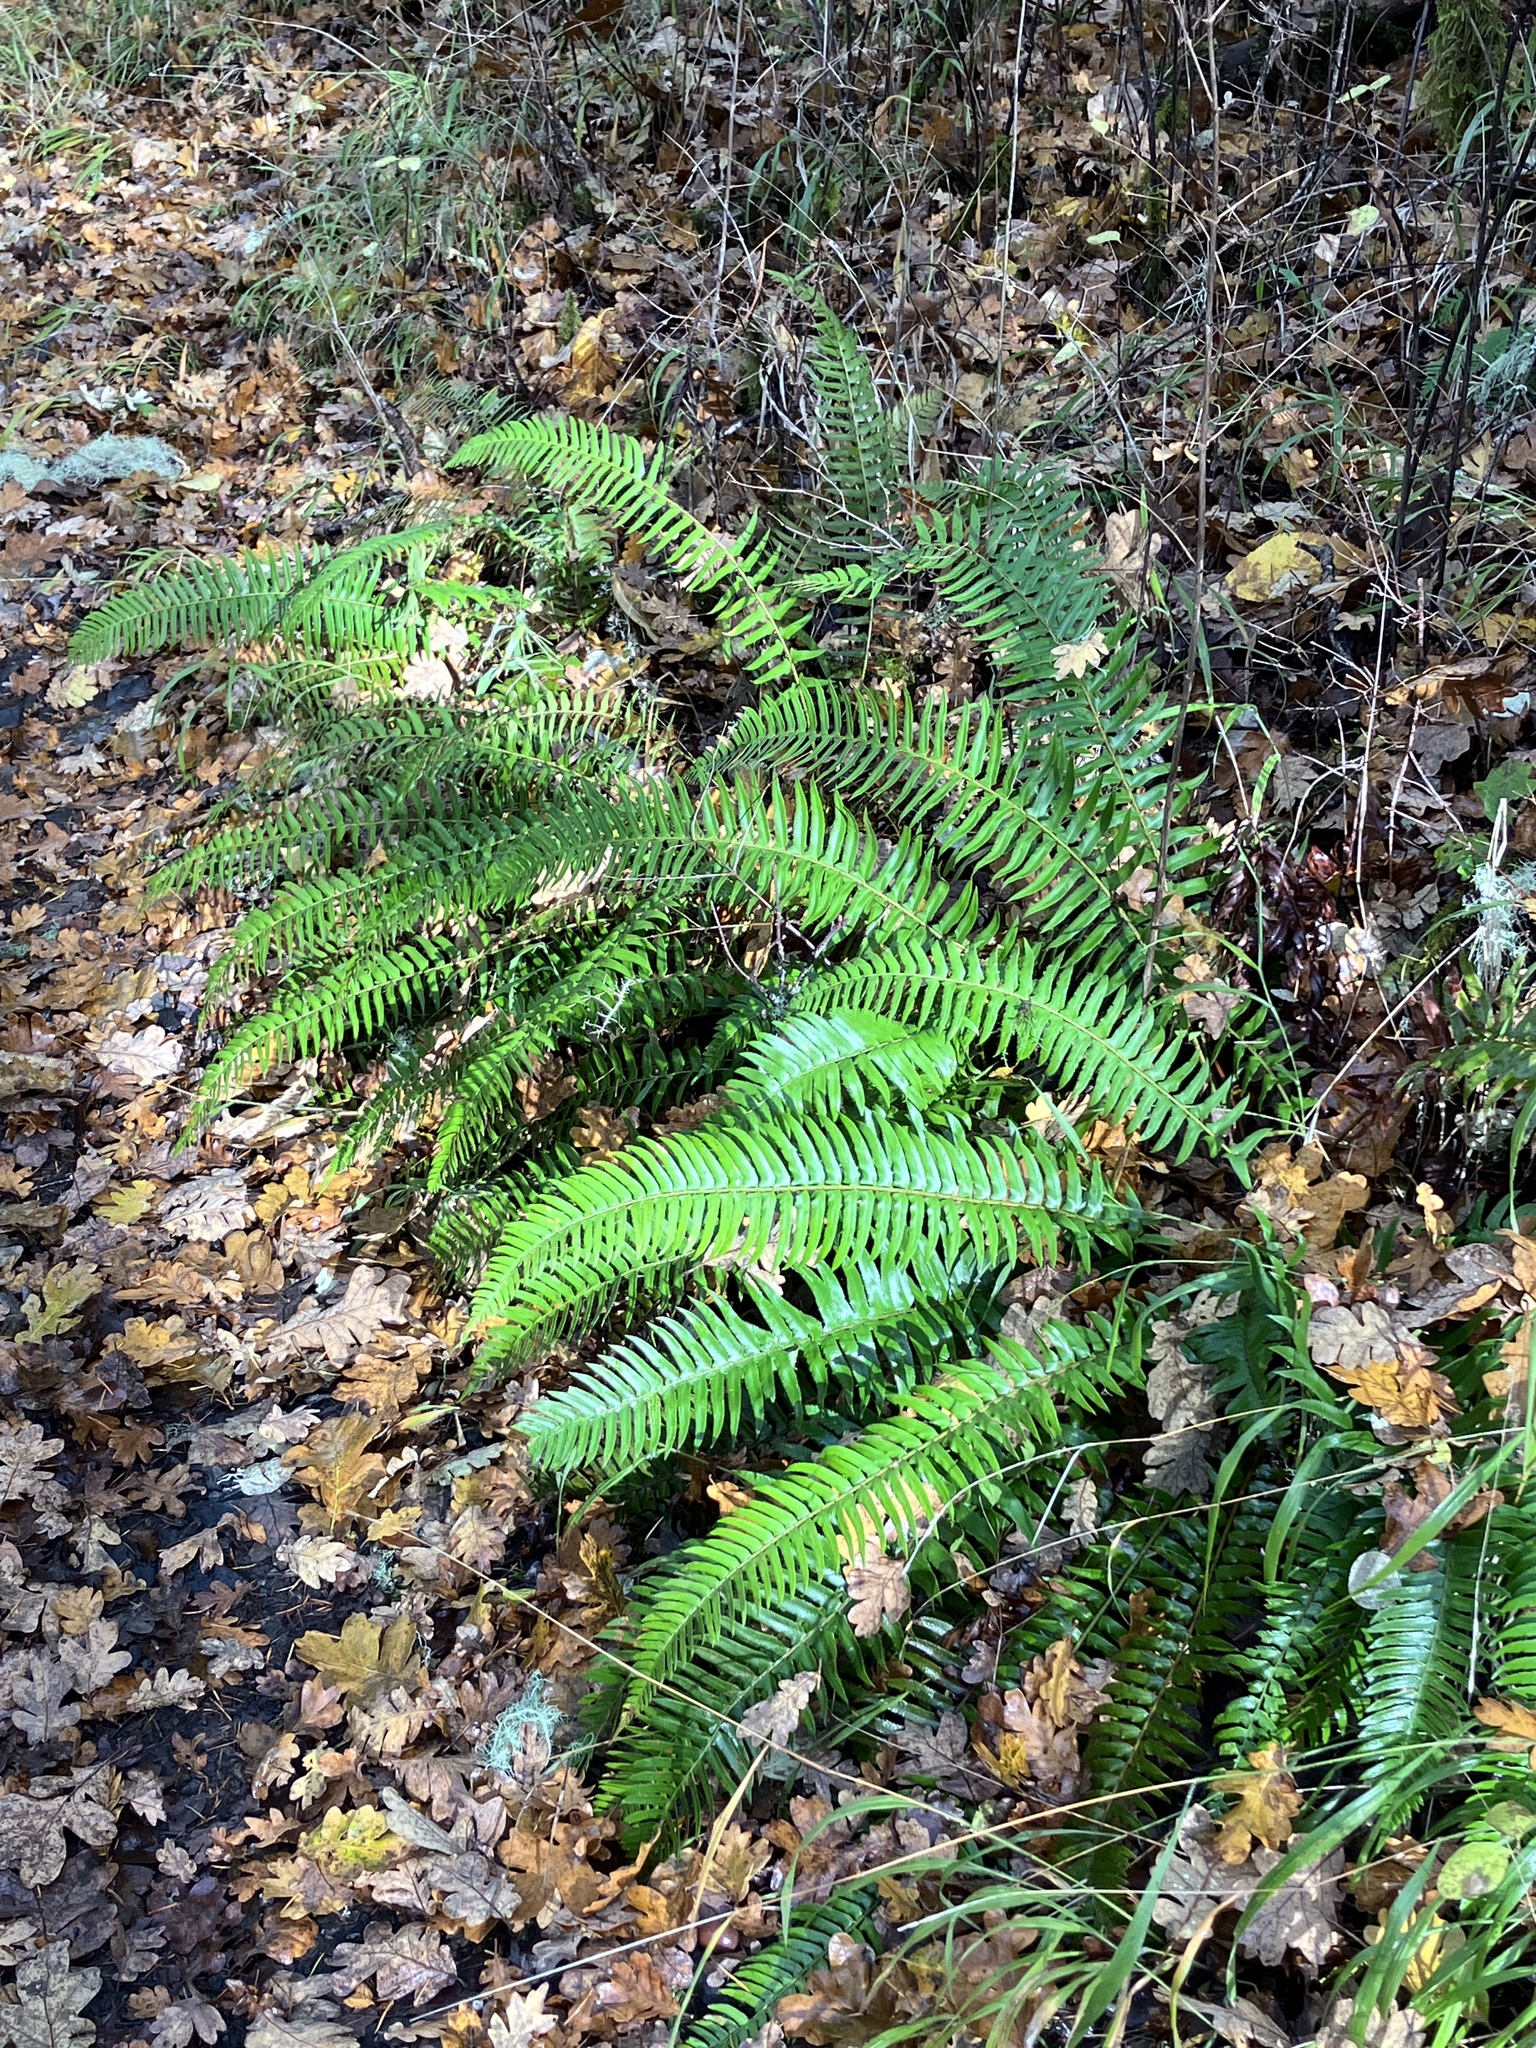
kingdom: Plantae
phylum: Tracheophyta
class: Polypodiopsida
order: Polypodiales
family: Dryopteridaceae
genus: Polystichum
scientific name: Polystichum munitum
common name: Western sword-fern
